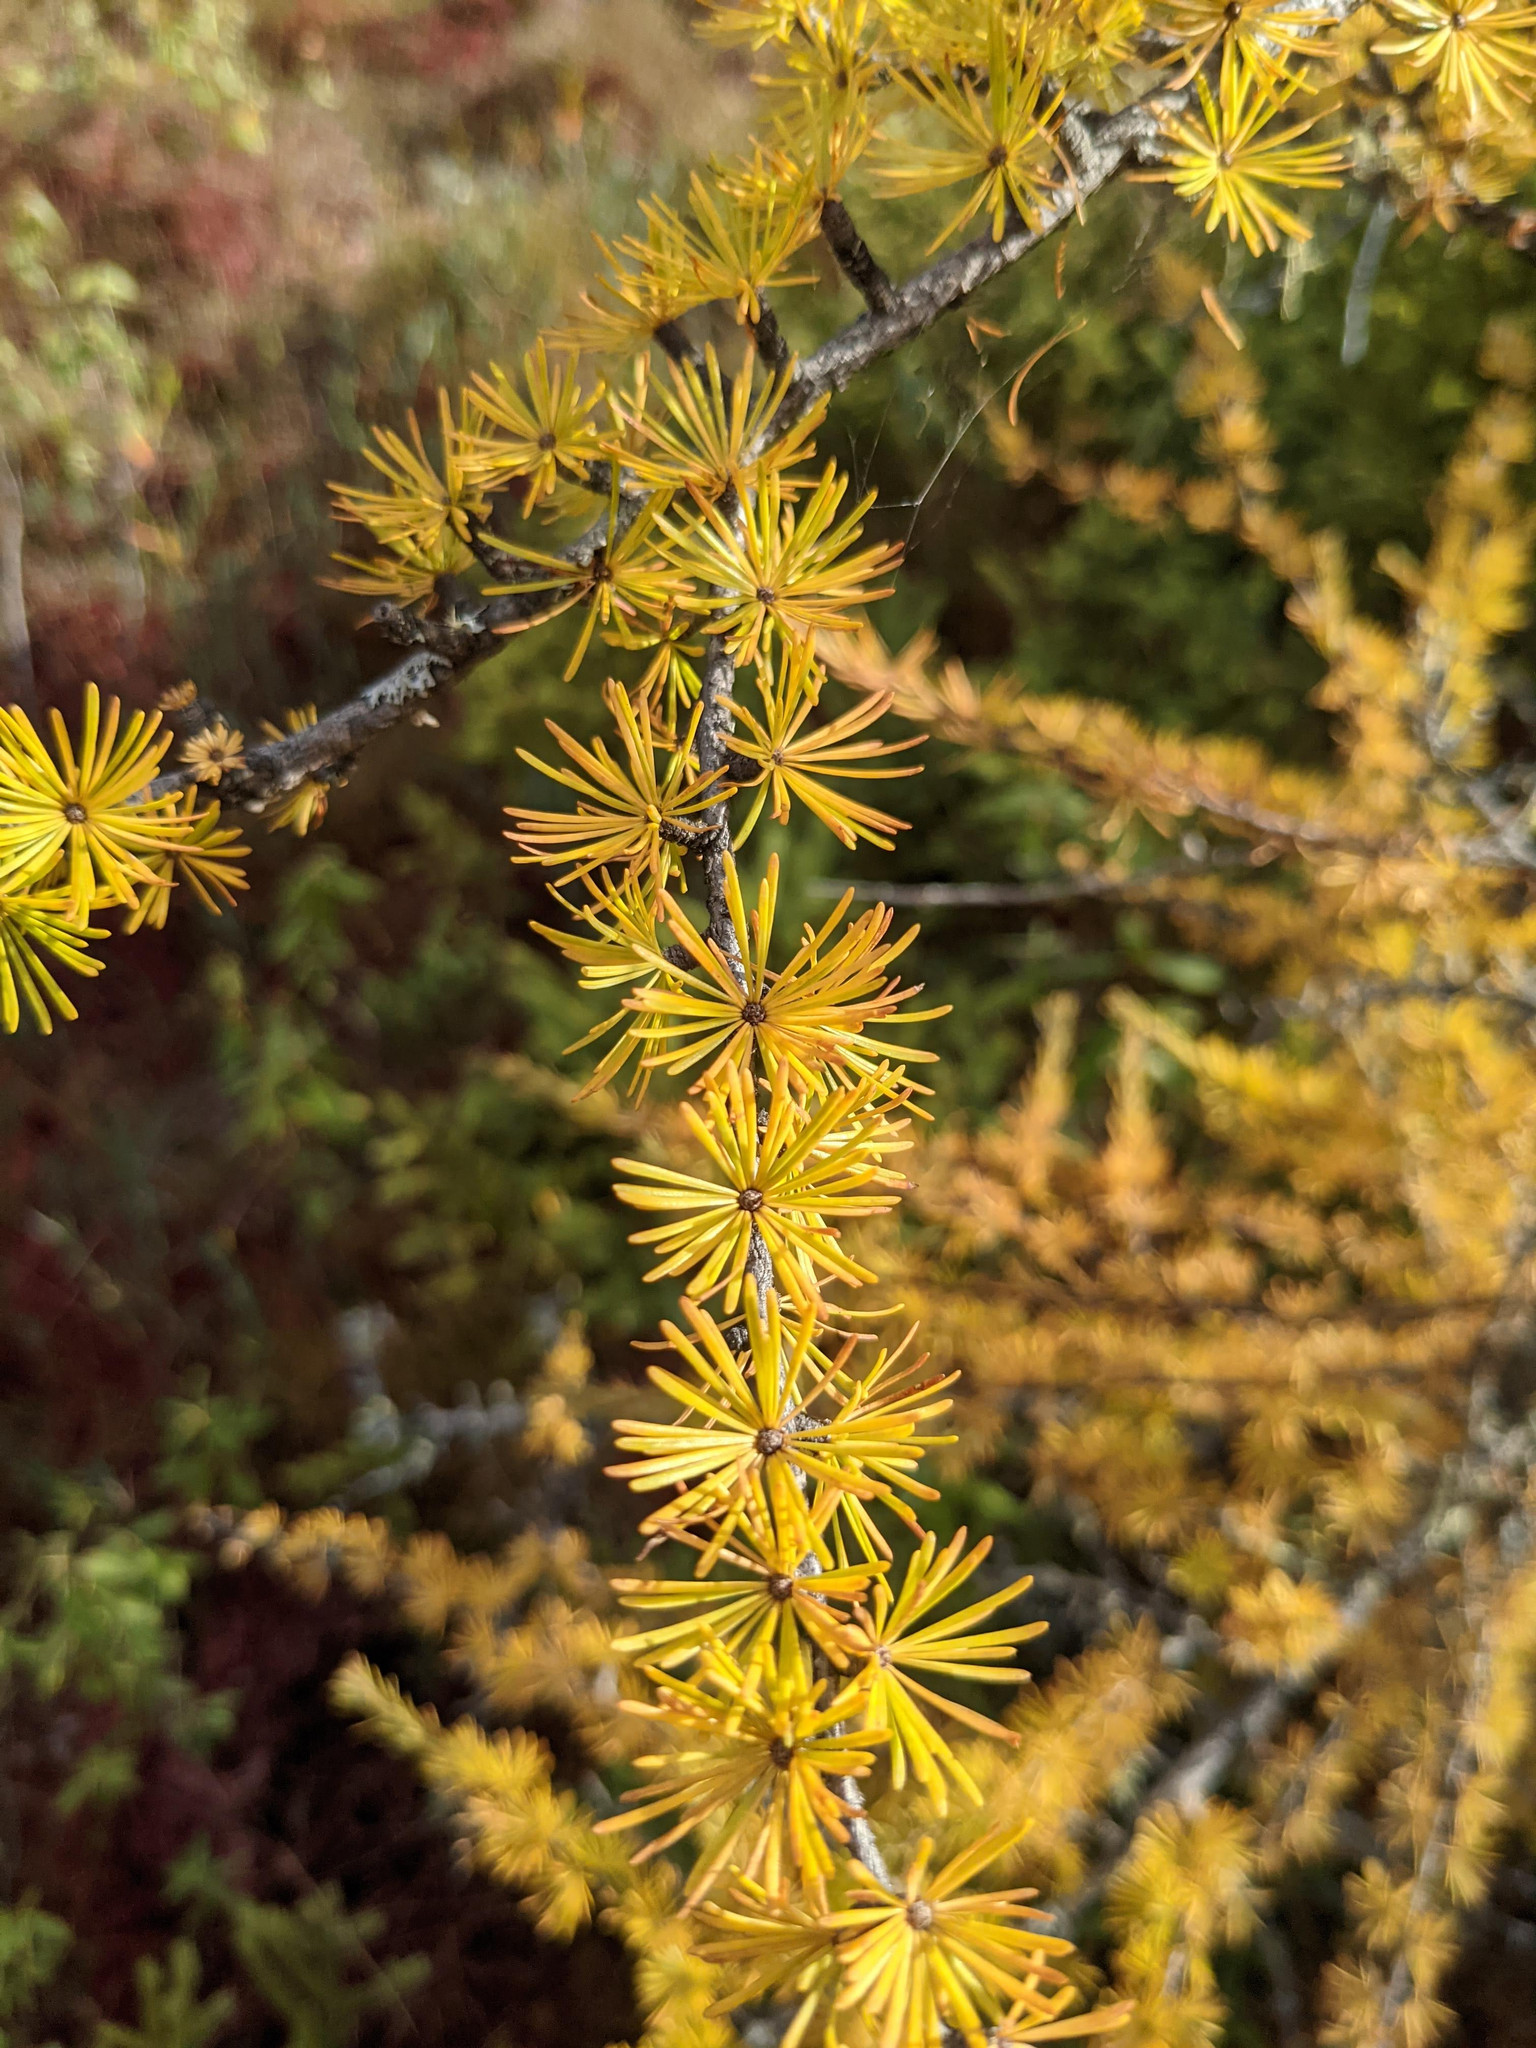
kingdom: Plantae
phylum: Tracheophyta
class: Pinopsida
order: Pinales
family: Pinaceae
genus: Larix
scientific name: Larix laricina
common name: American larch
